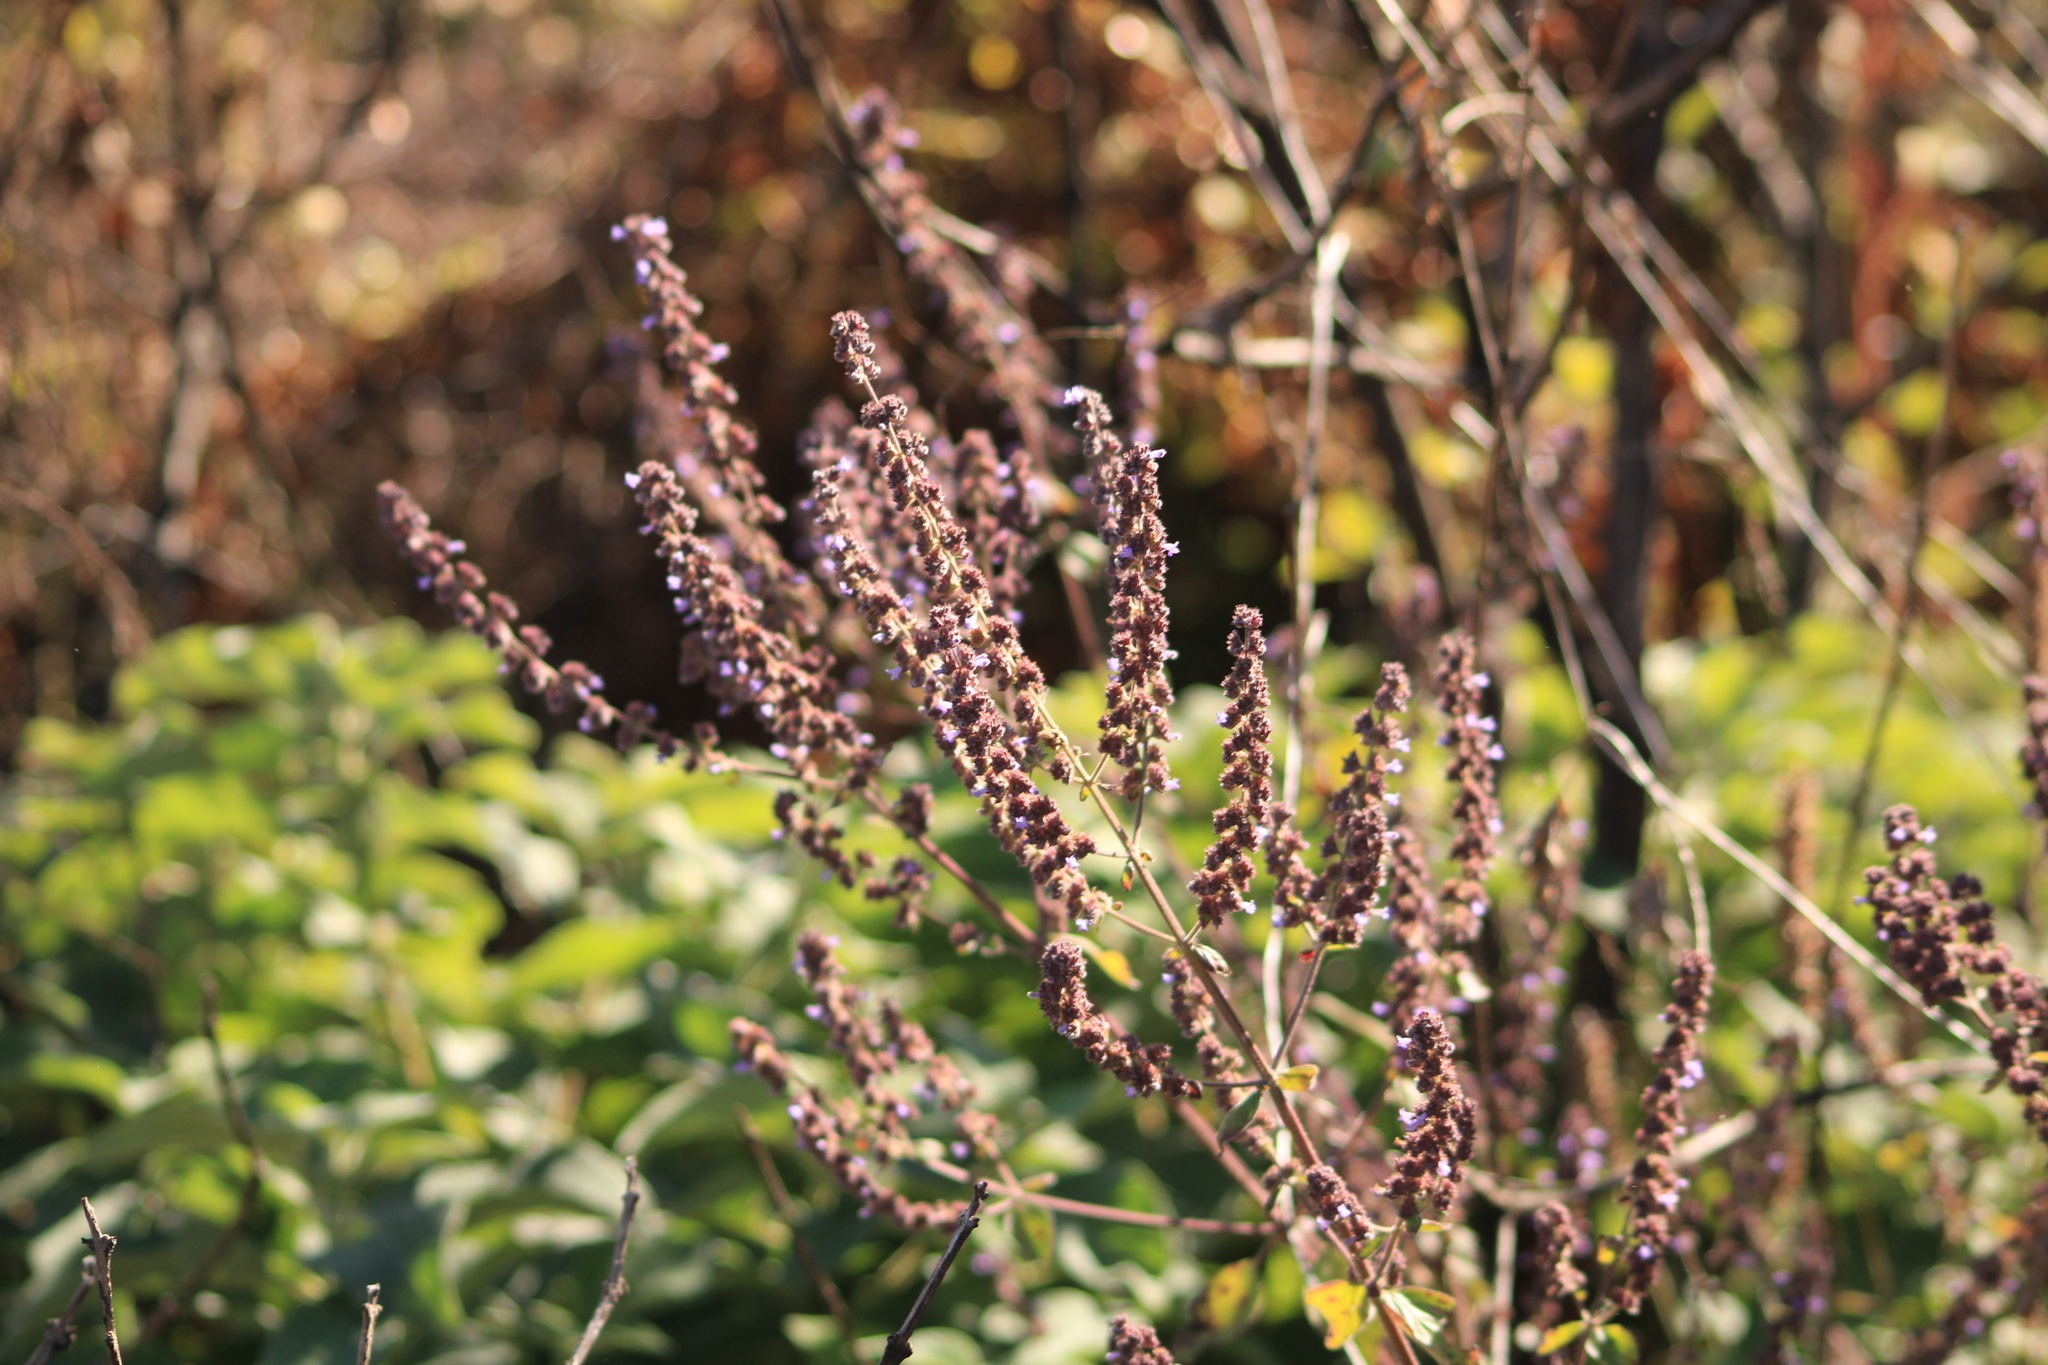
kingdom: Plantae
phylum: Tracheophyta
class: Magnoliopsida
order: Lamiales
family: Lamiaceae
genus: Cantinoa
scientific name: Cantinoa mutabilis
